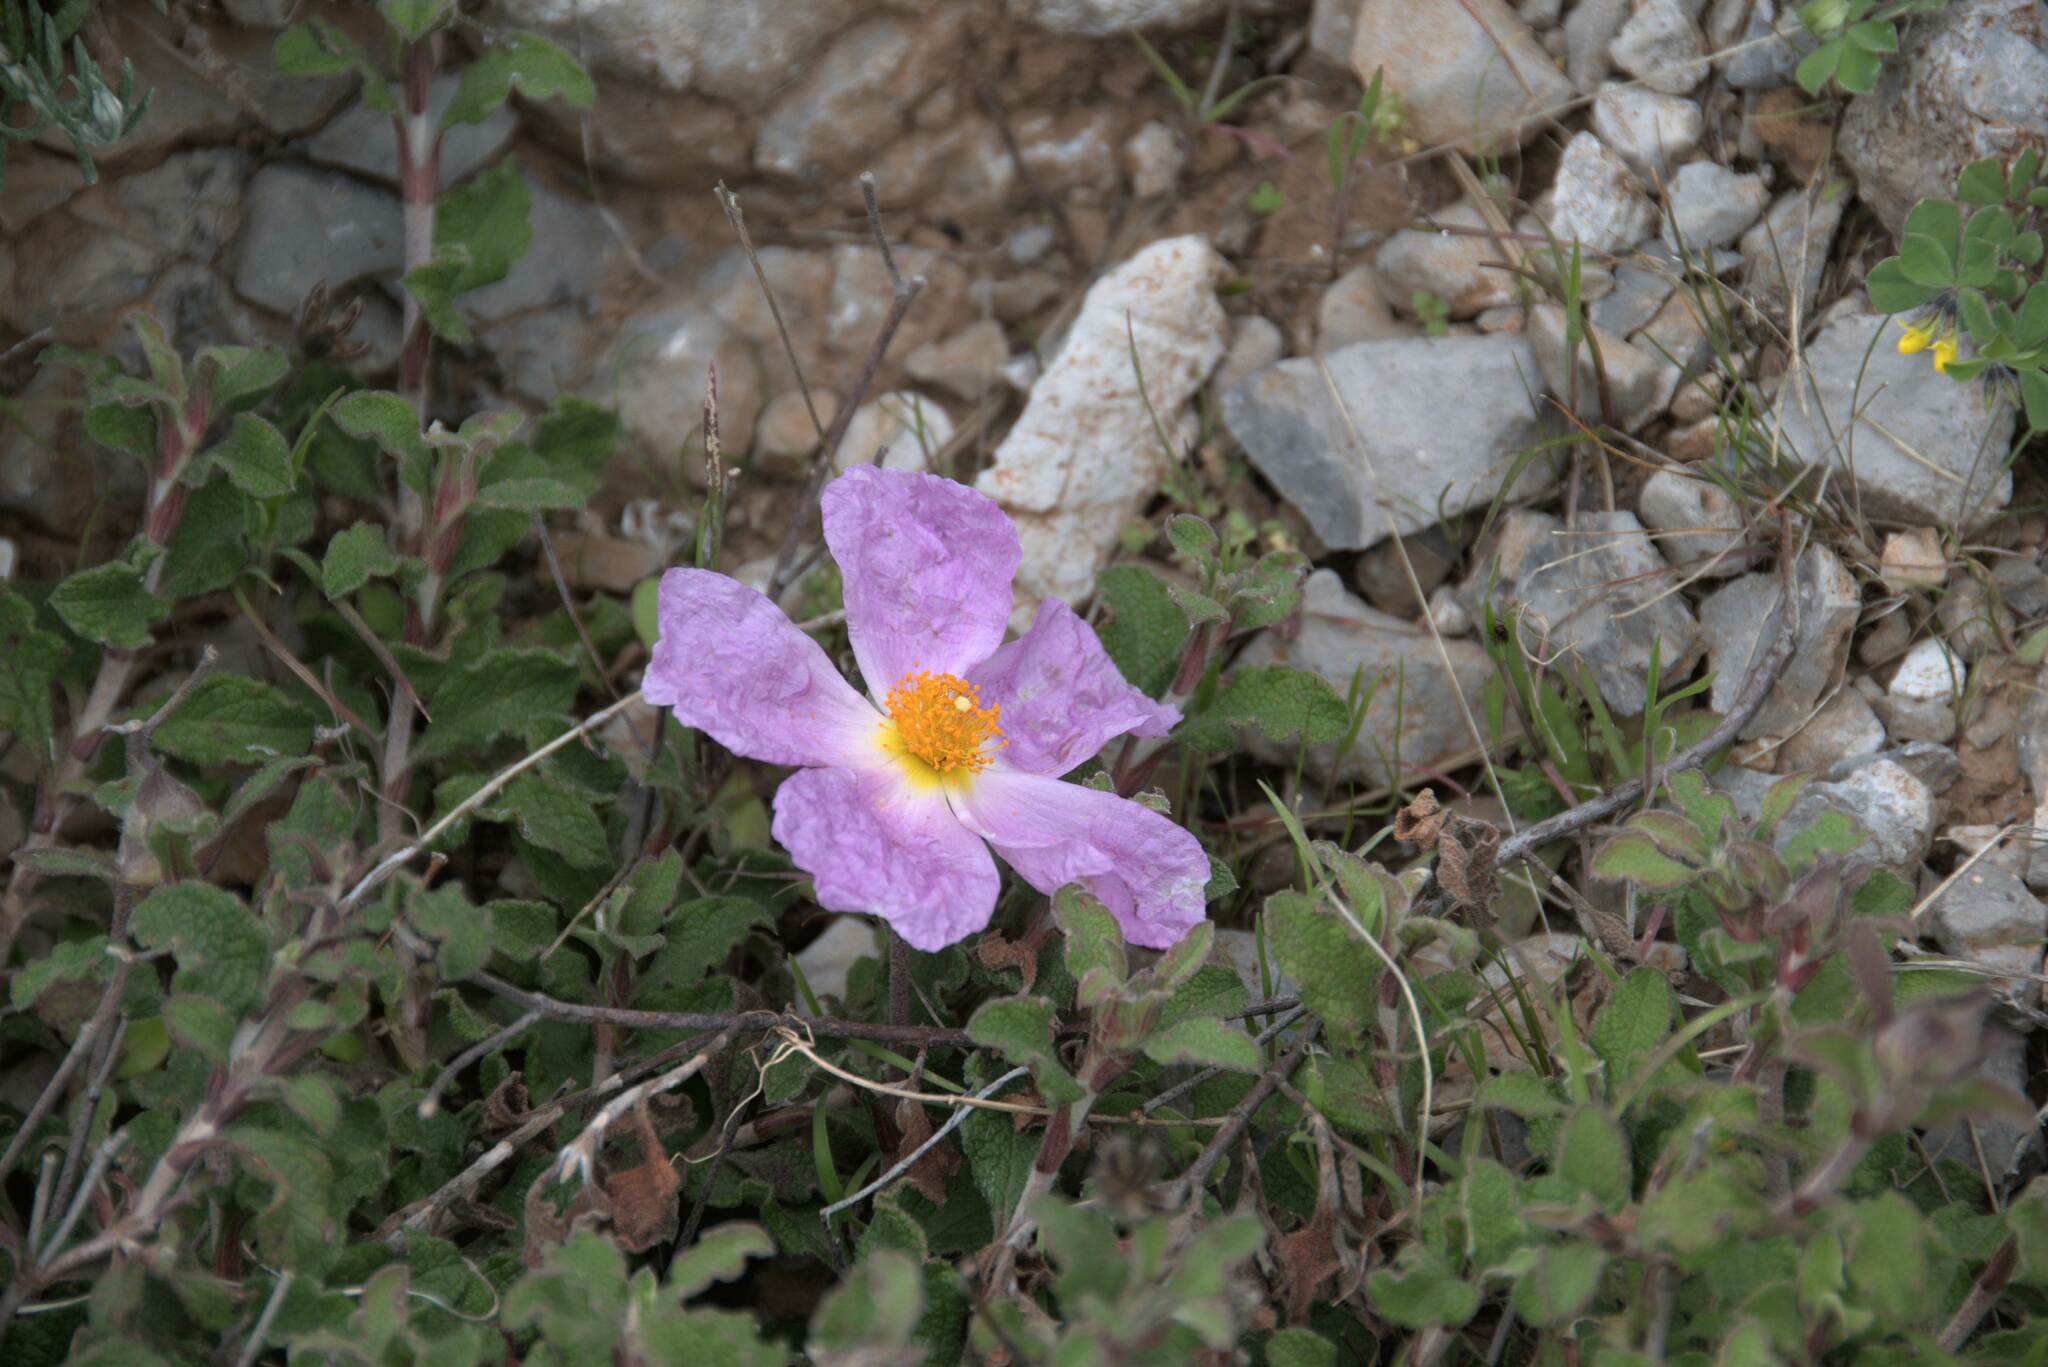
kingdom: Plantae
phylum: Tracheophyta
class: Magnoliopsida
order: Malvales
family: Cistaceae
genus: Cistus
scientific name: Cistus creticus
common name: Cretan rockrose
